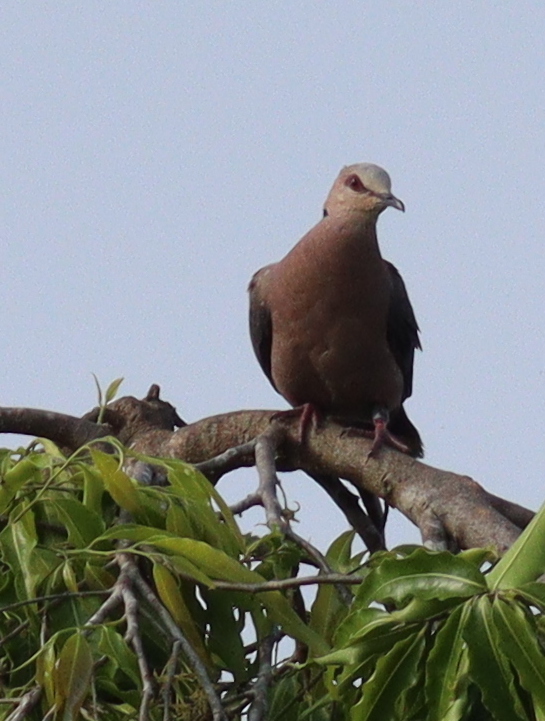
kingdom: Animalia
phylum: Chordata
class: Aves
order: Columbiformes
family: Columbidae
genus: Streptopelia
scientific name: Streptopelia semitorquata
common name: Red-eyed dove
